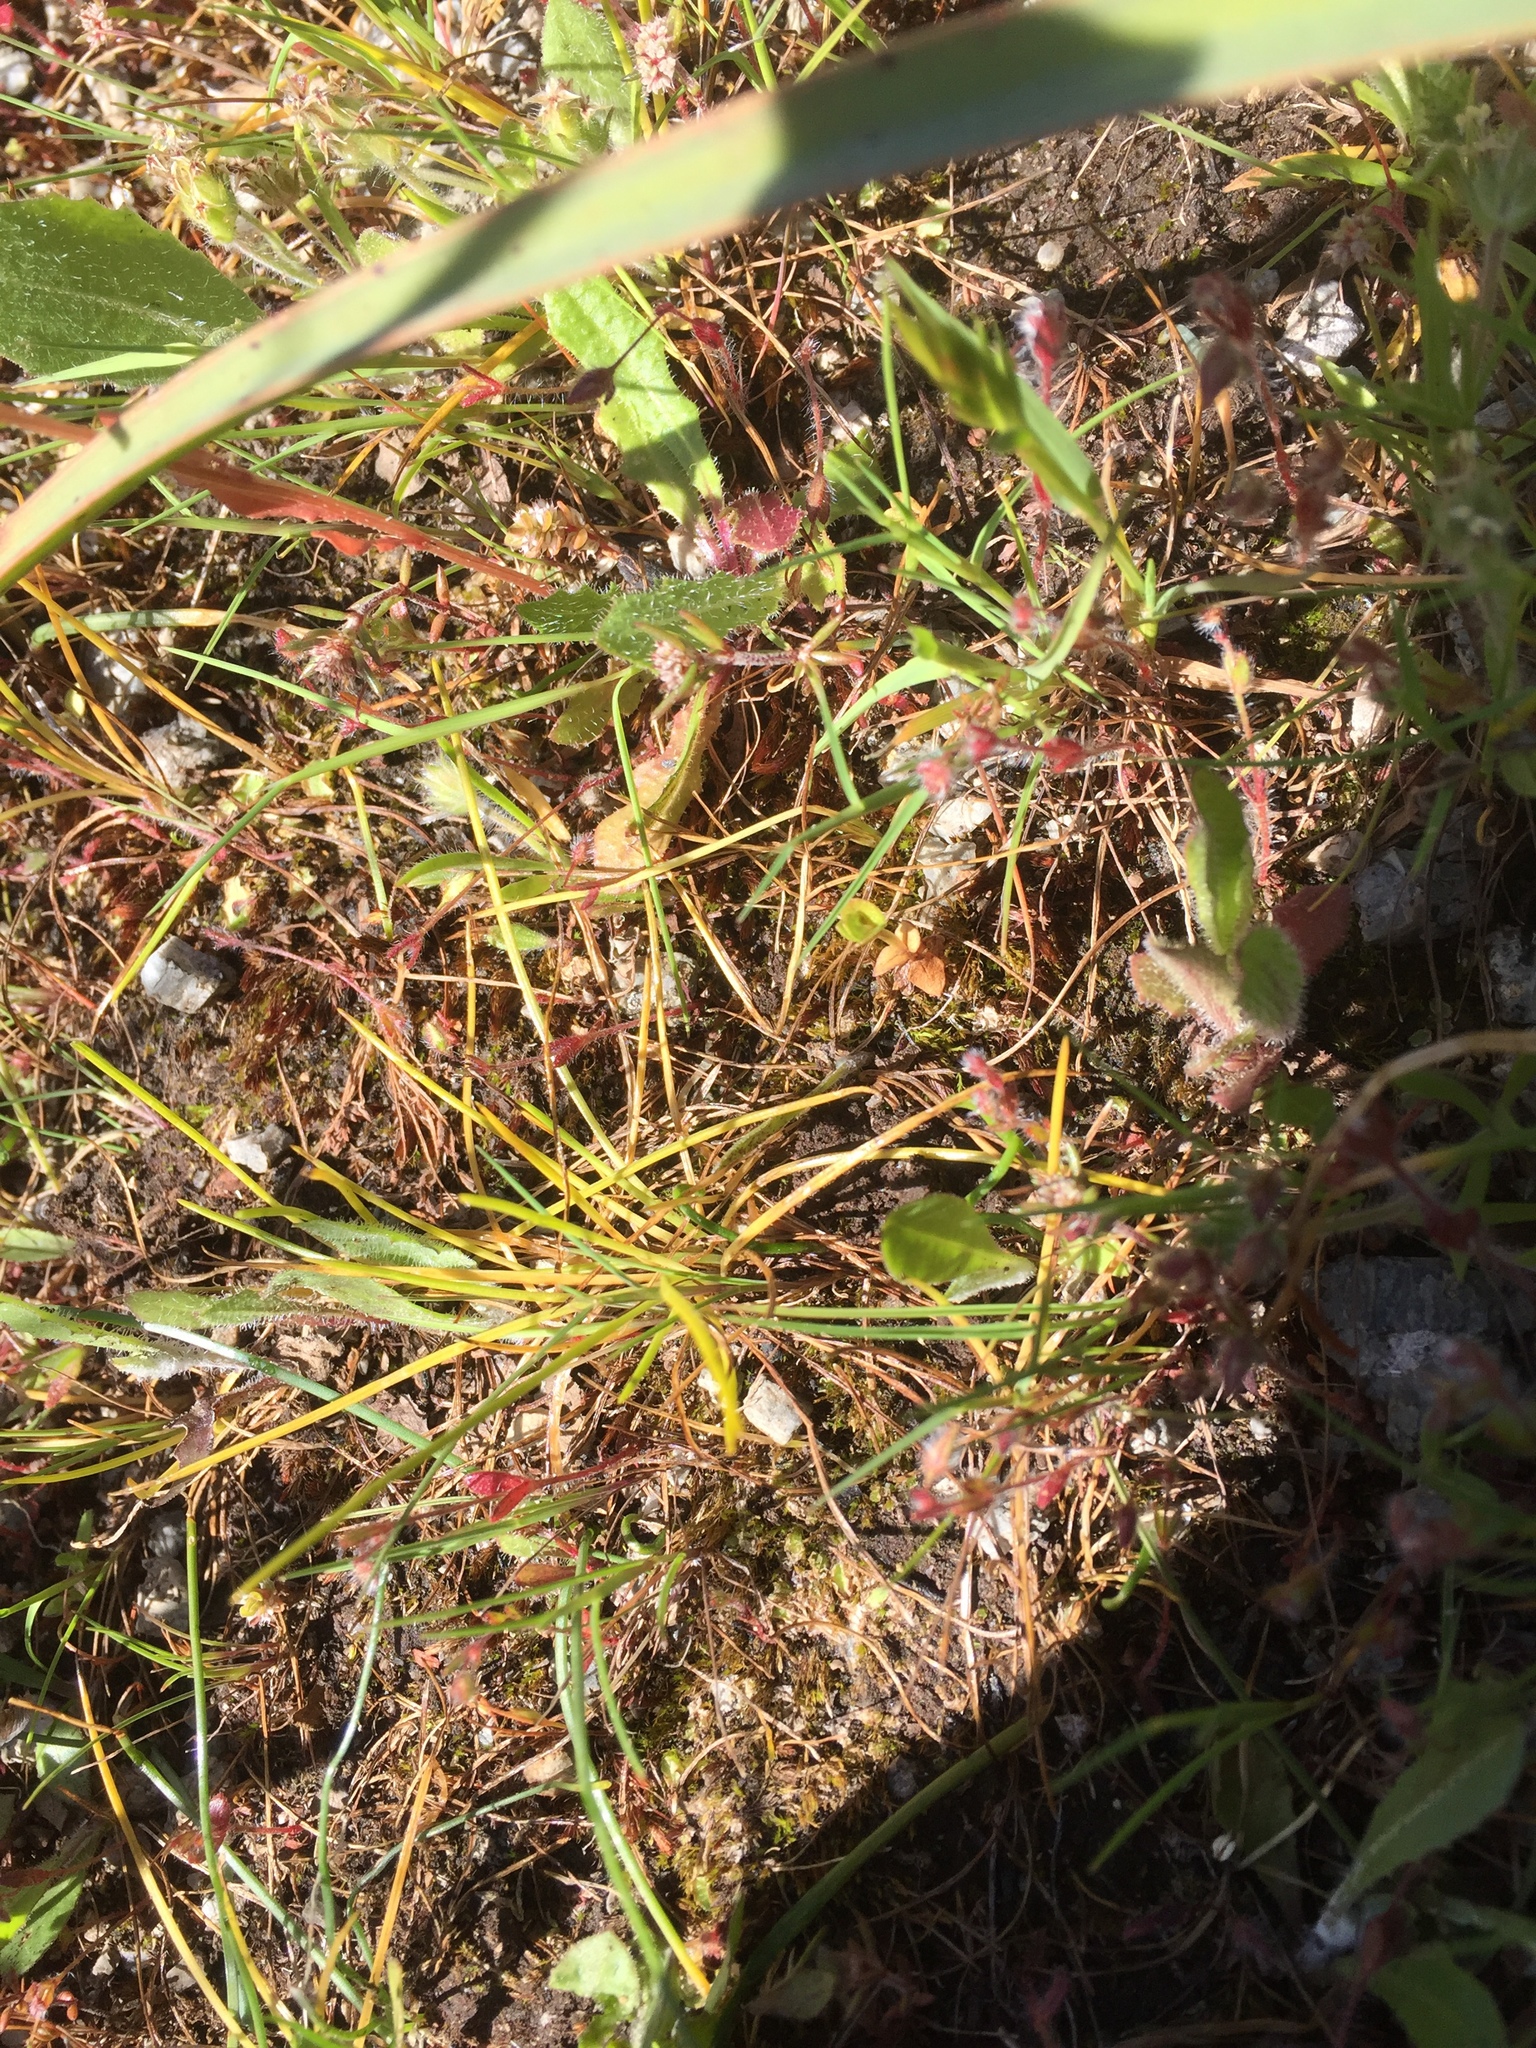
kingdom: Plantae
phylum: Tracheophyta
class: Liliopsida
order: Poales
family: Cyperaceae
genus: Isolepis
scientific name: Isolepis setacea
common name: Bristle club-rush
